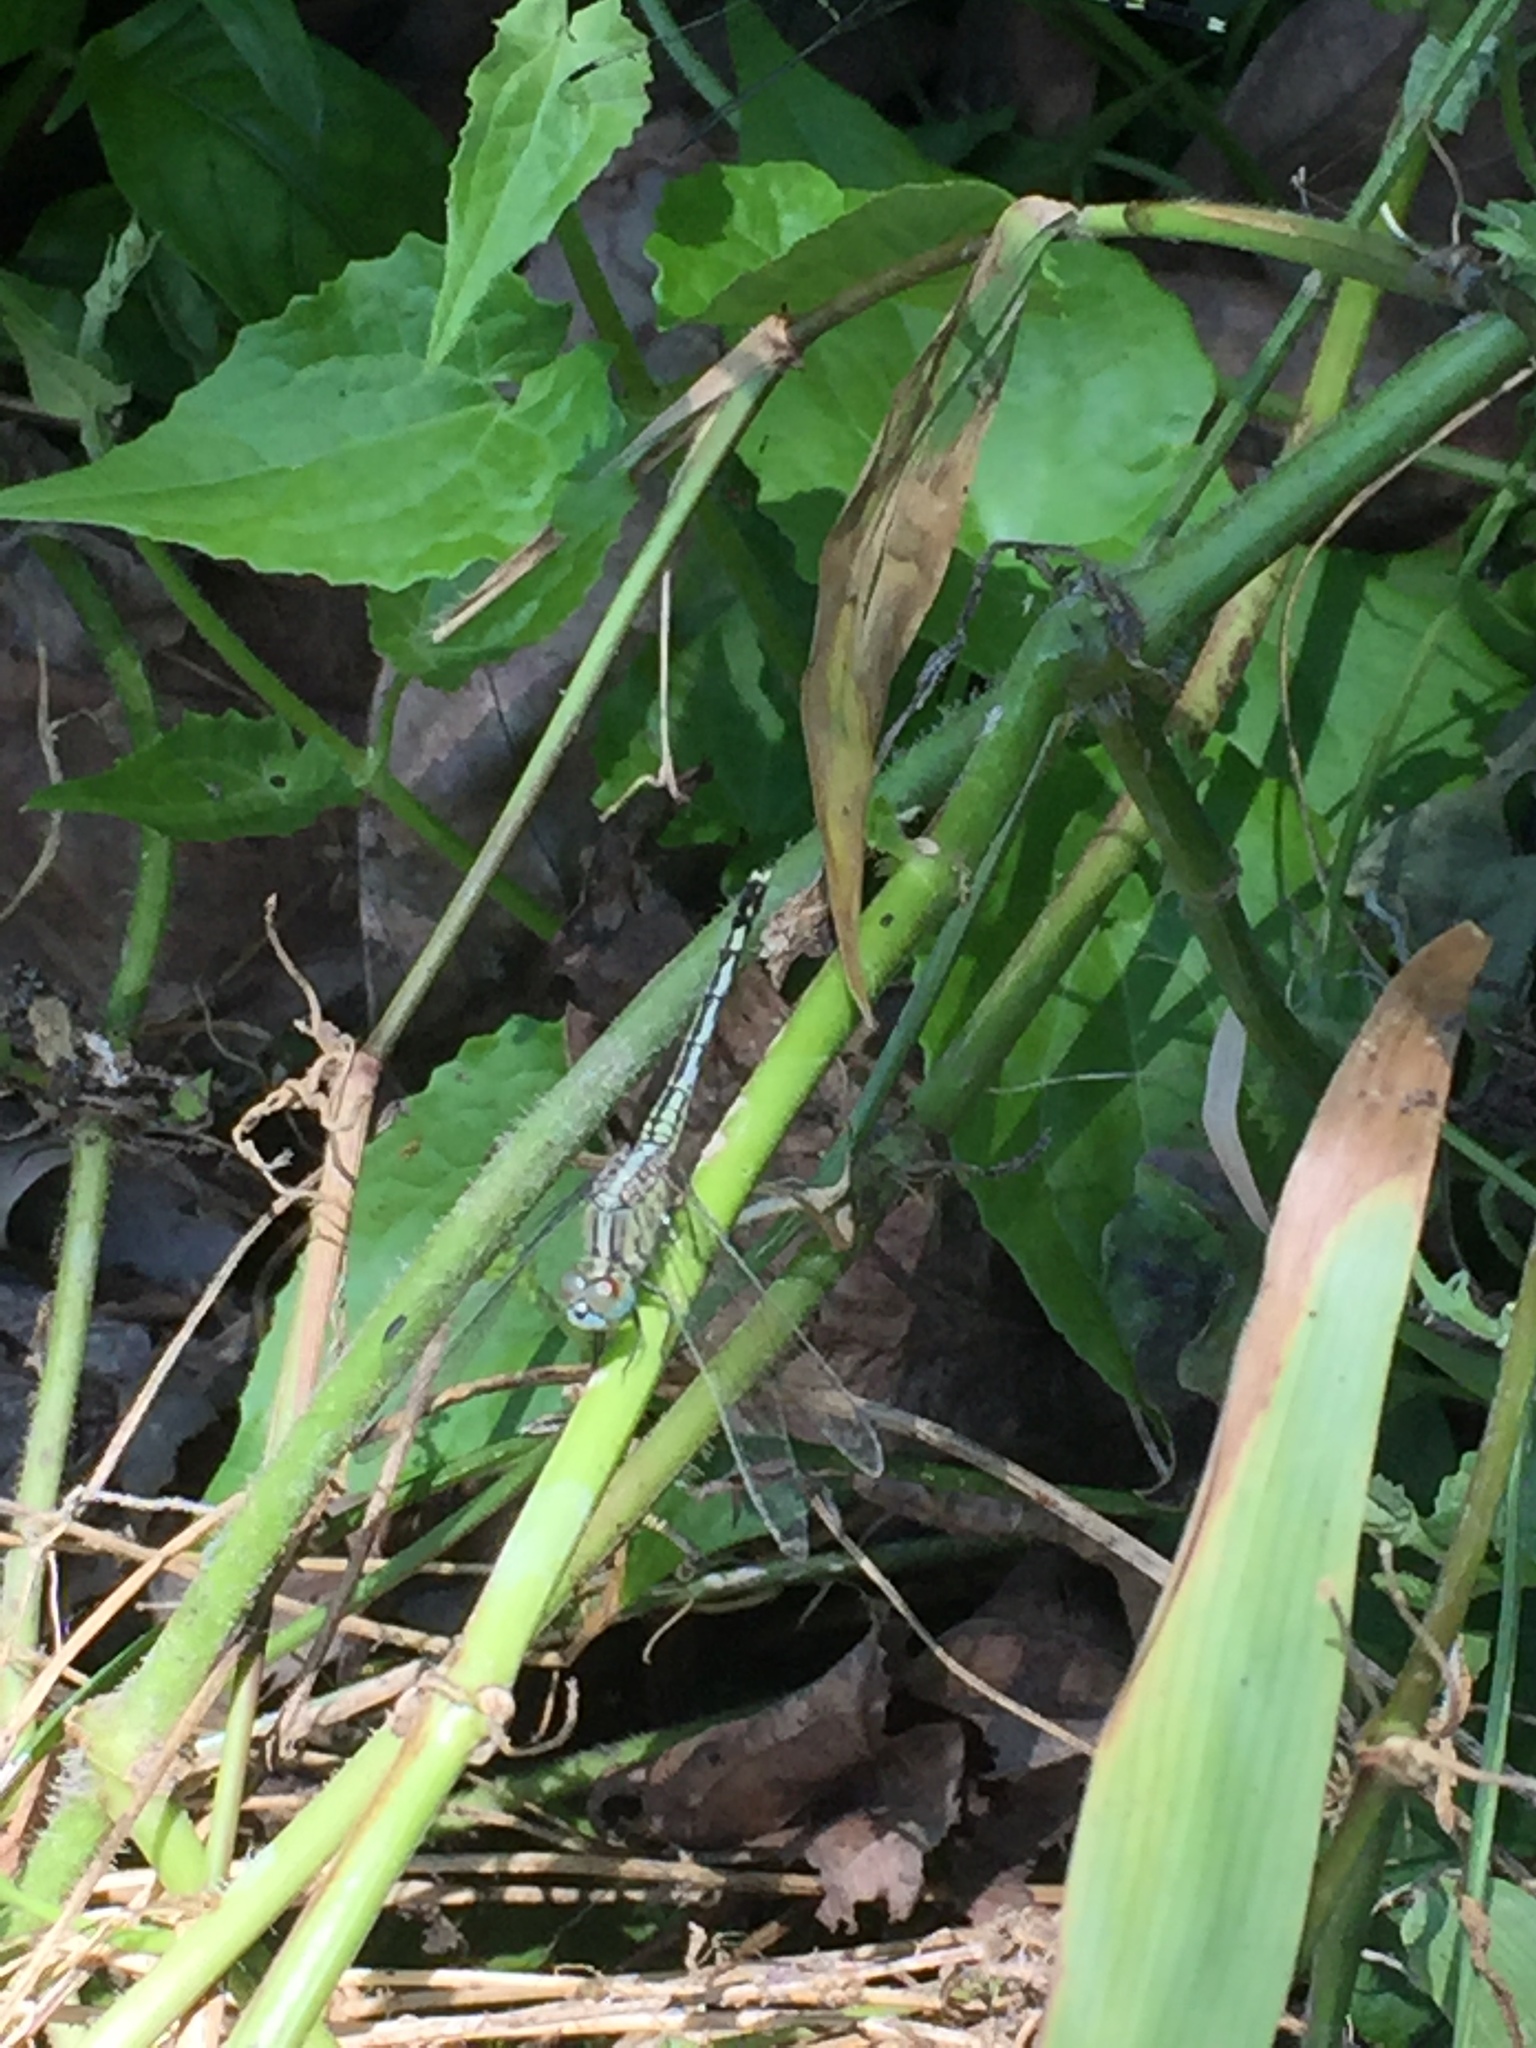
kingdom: Animalia
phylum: Arthropoda
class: Insecta
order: Odonata
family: Libellulidae
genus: Diplacodes
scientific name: Diplacodes trivialis
